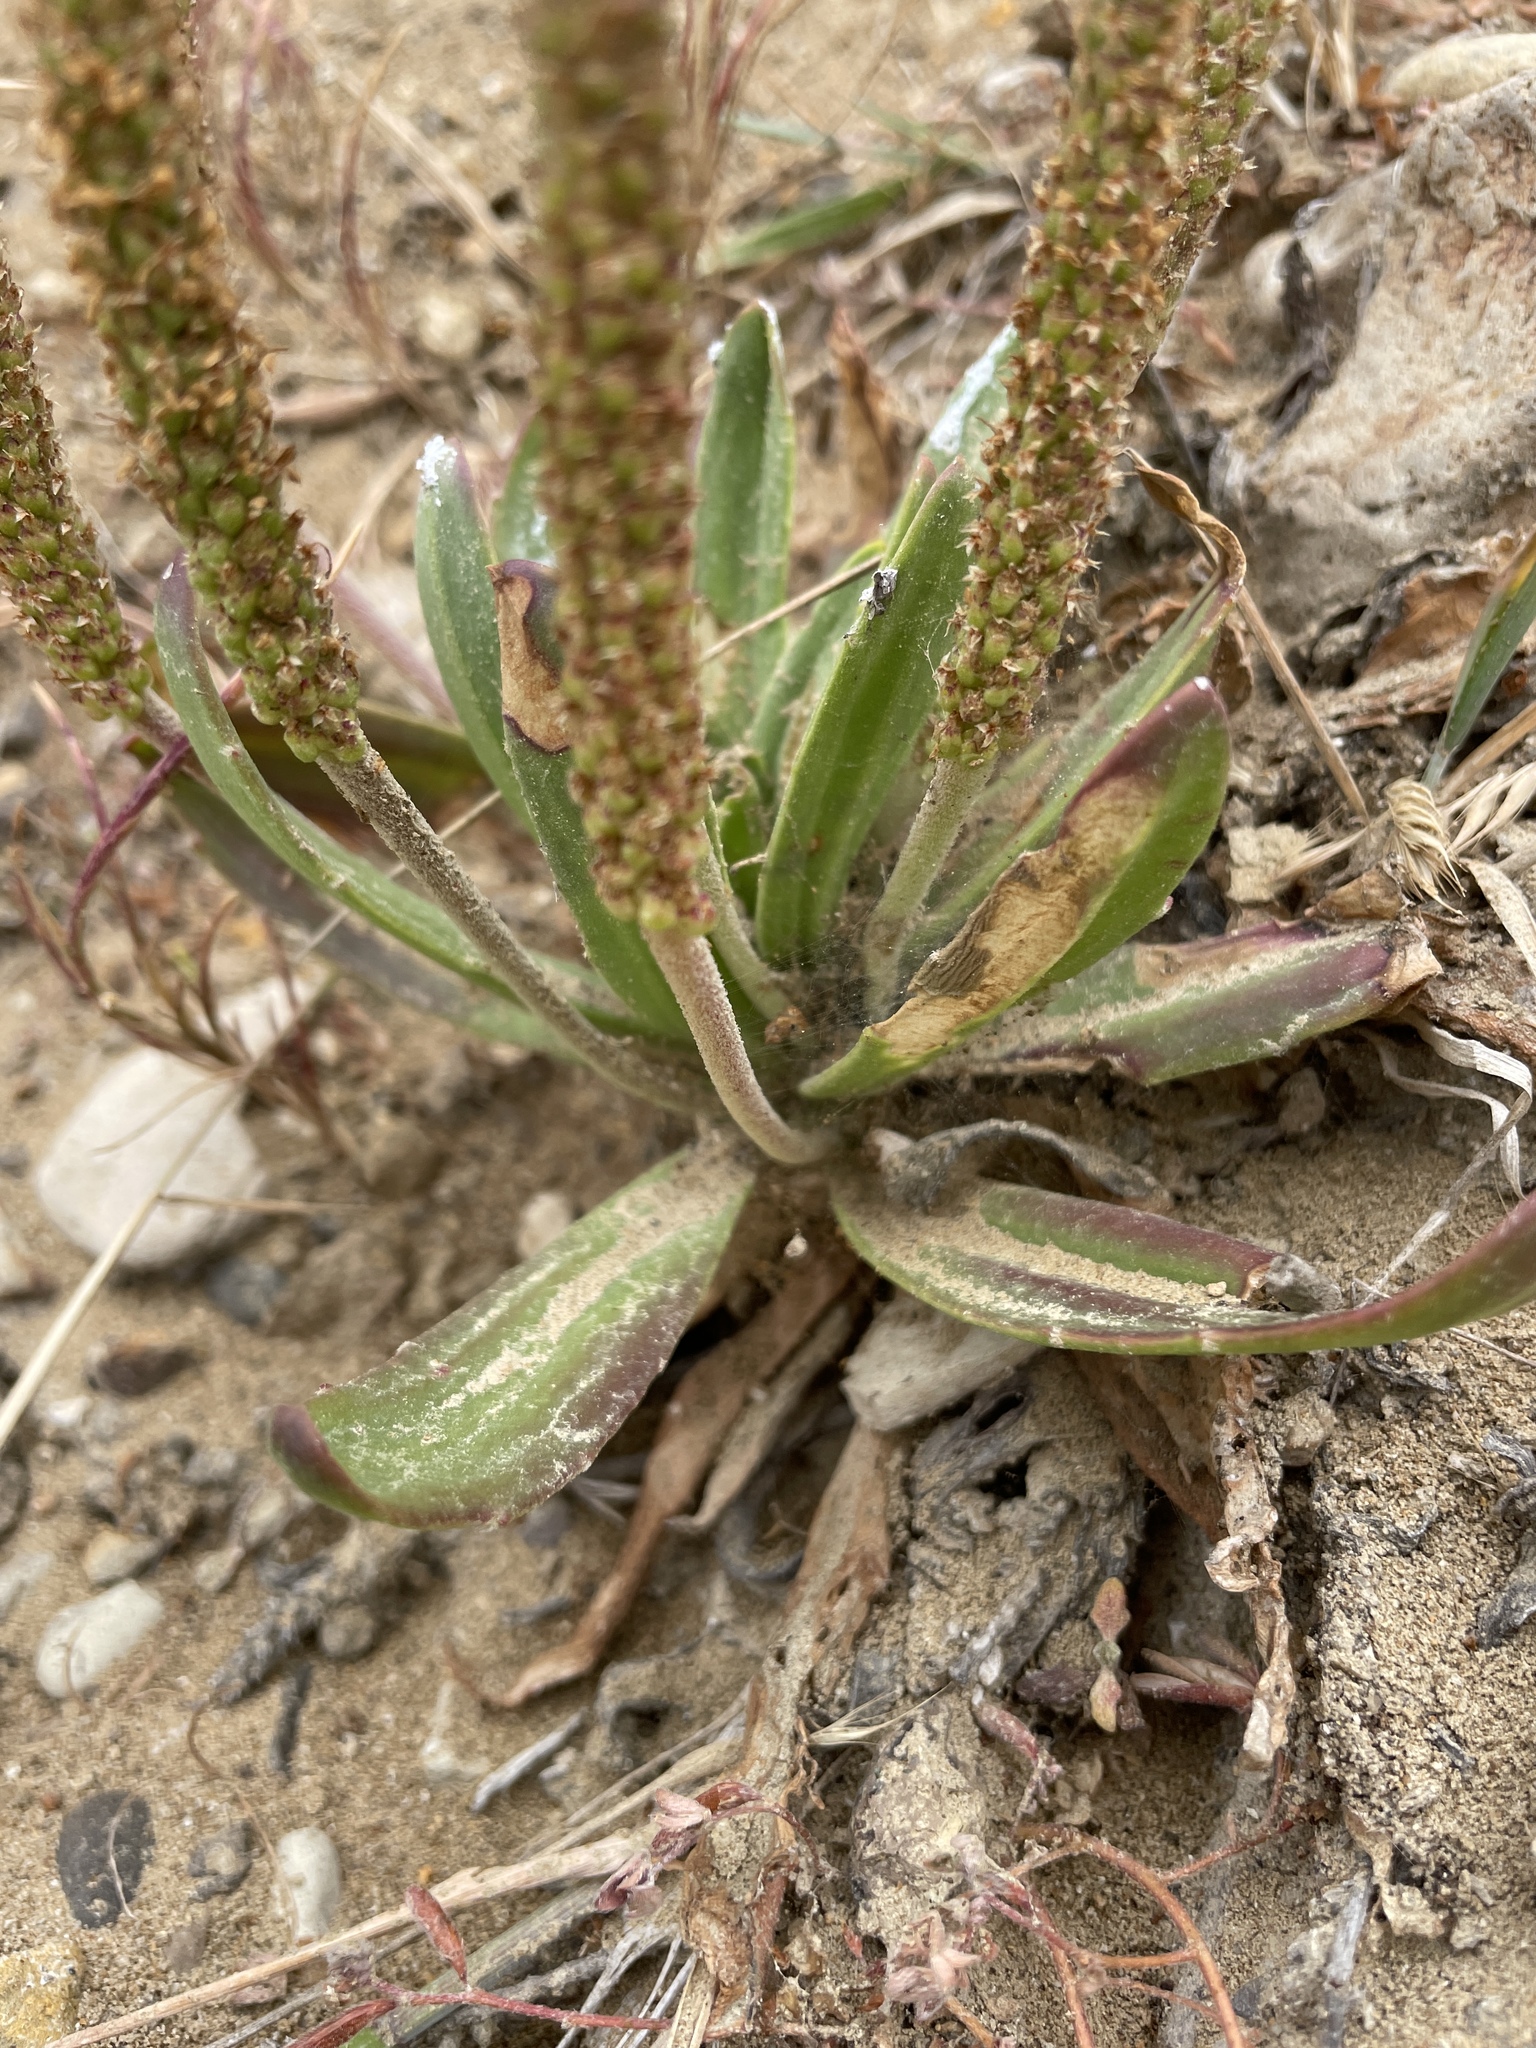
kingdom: Plantae
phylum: Tracheophyta
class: Magnoliopsida
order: Lamiales
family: Plantaginaceae
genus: Plantago
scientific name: Plantago maritima
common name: Sea plantain
